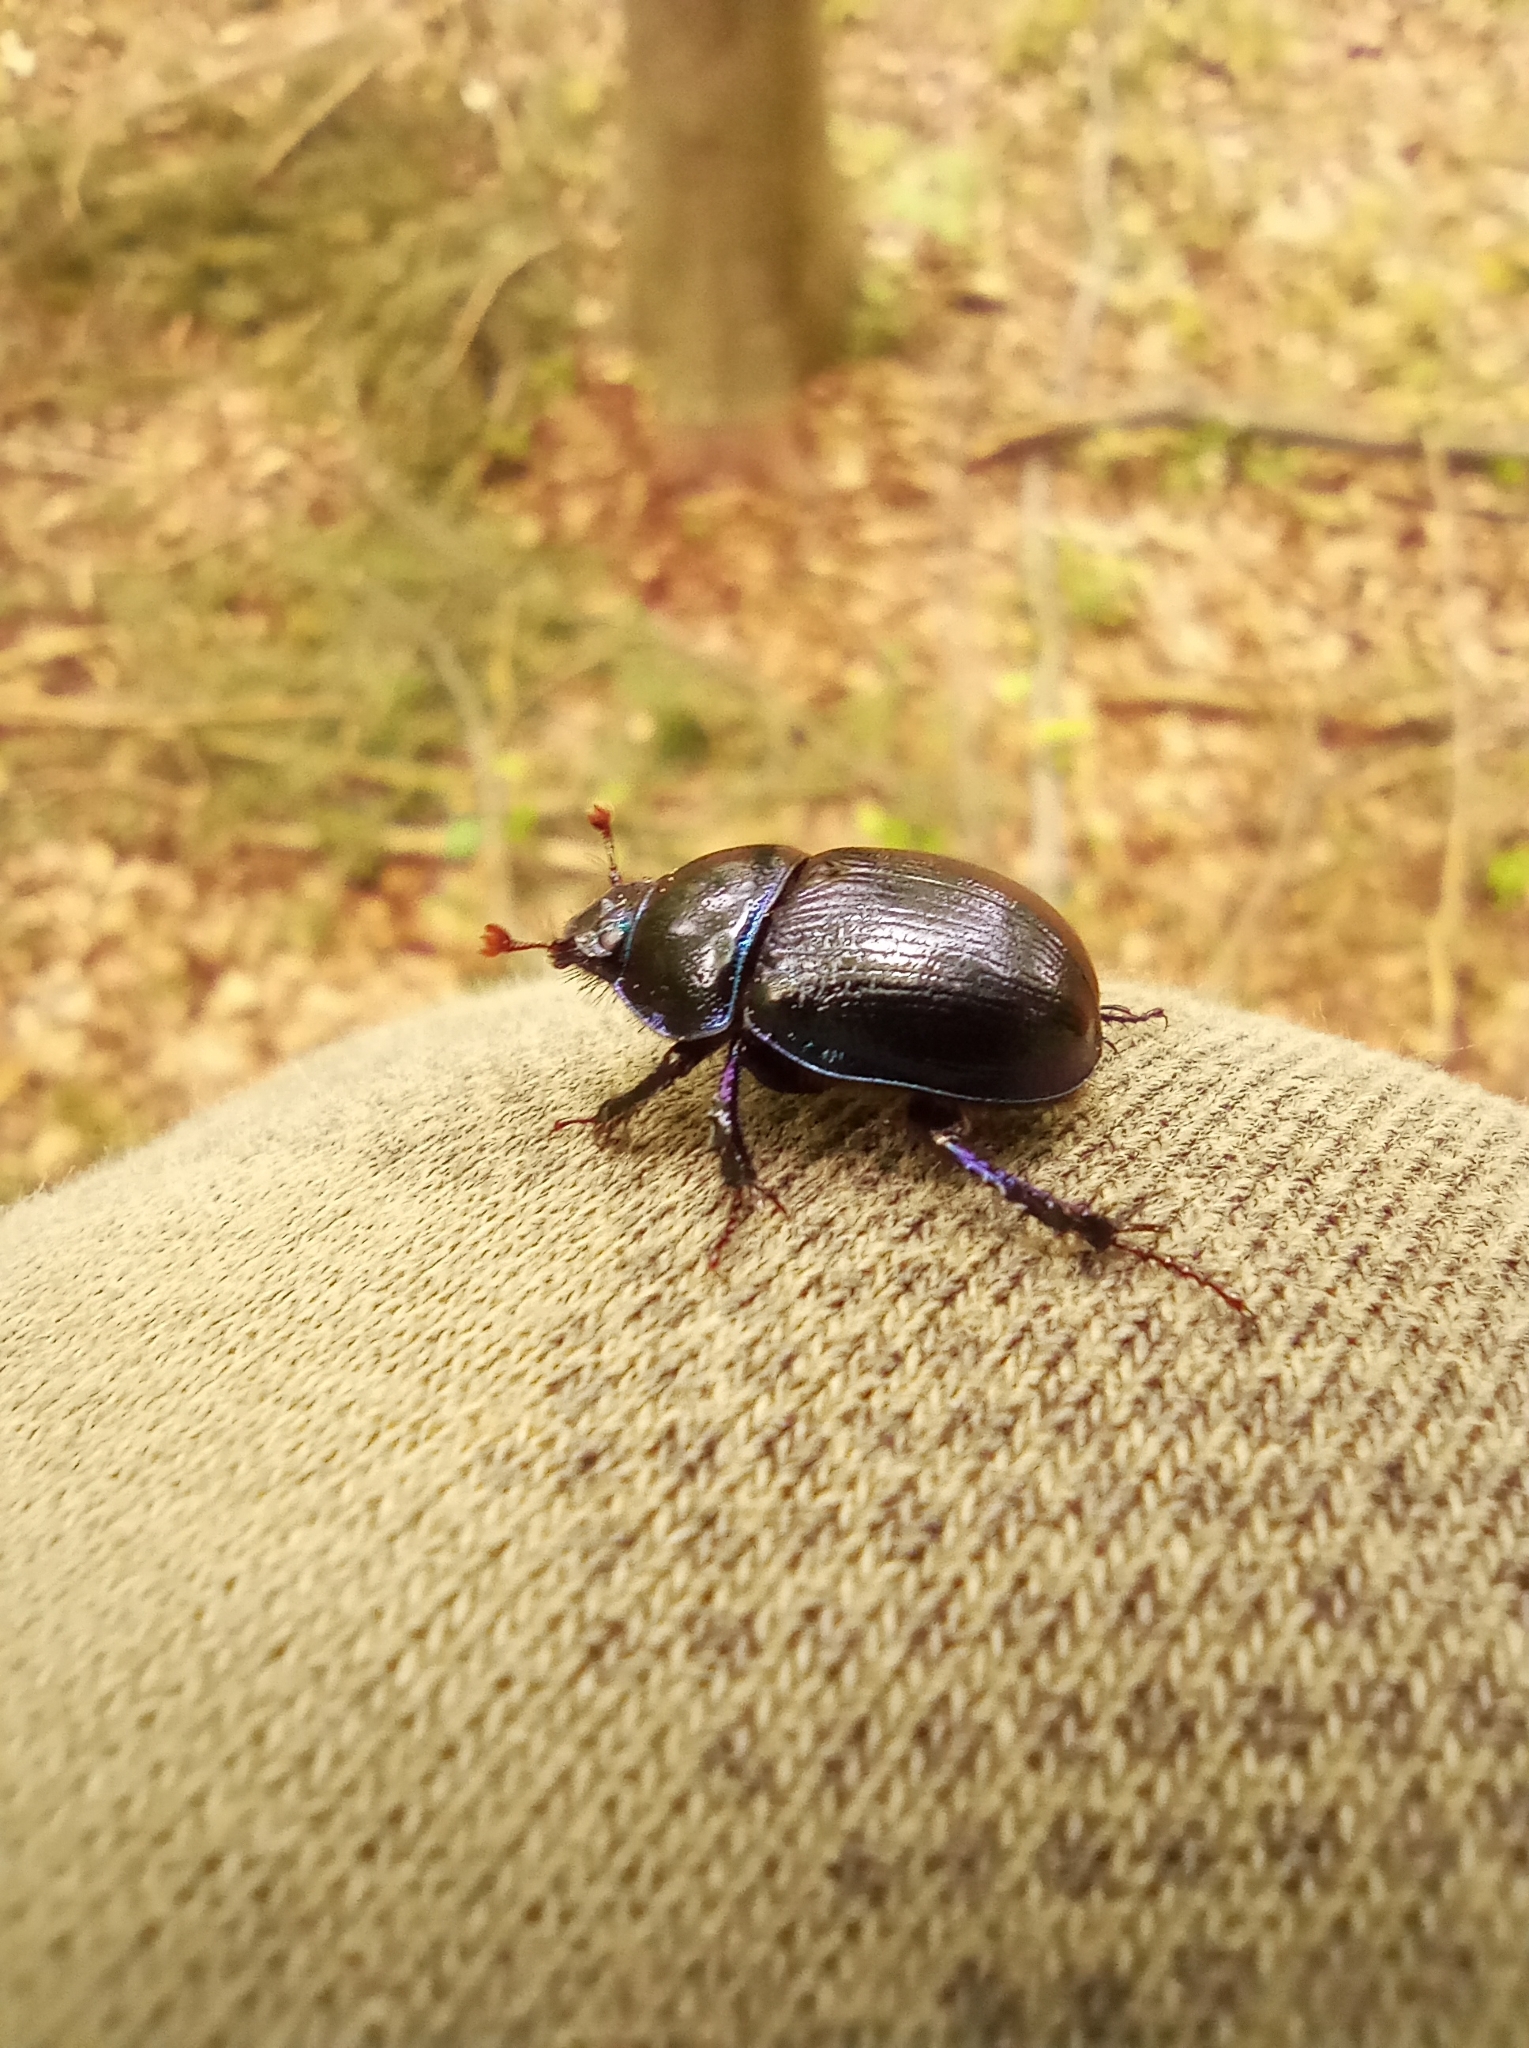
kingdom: Animalia
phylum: Arthropoda
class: Insecta
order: Coleoptera
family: Geotrupidae
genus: Anoplotrupes
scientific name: Anoplotrupes stercorosus
